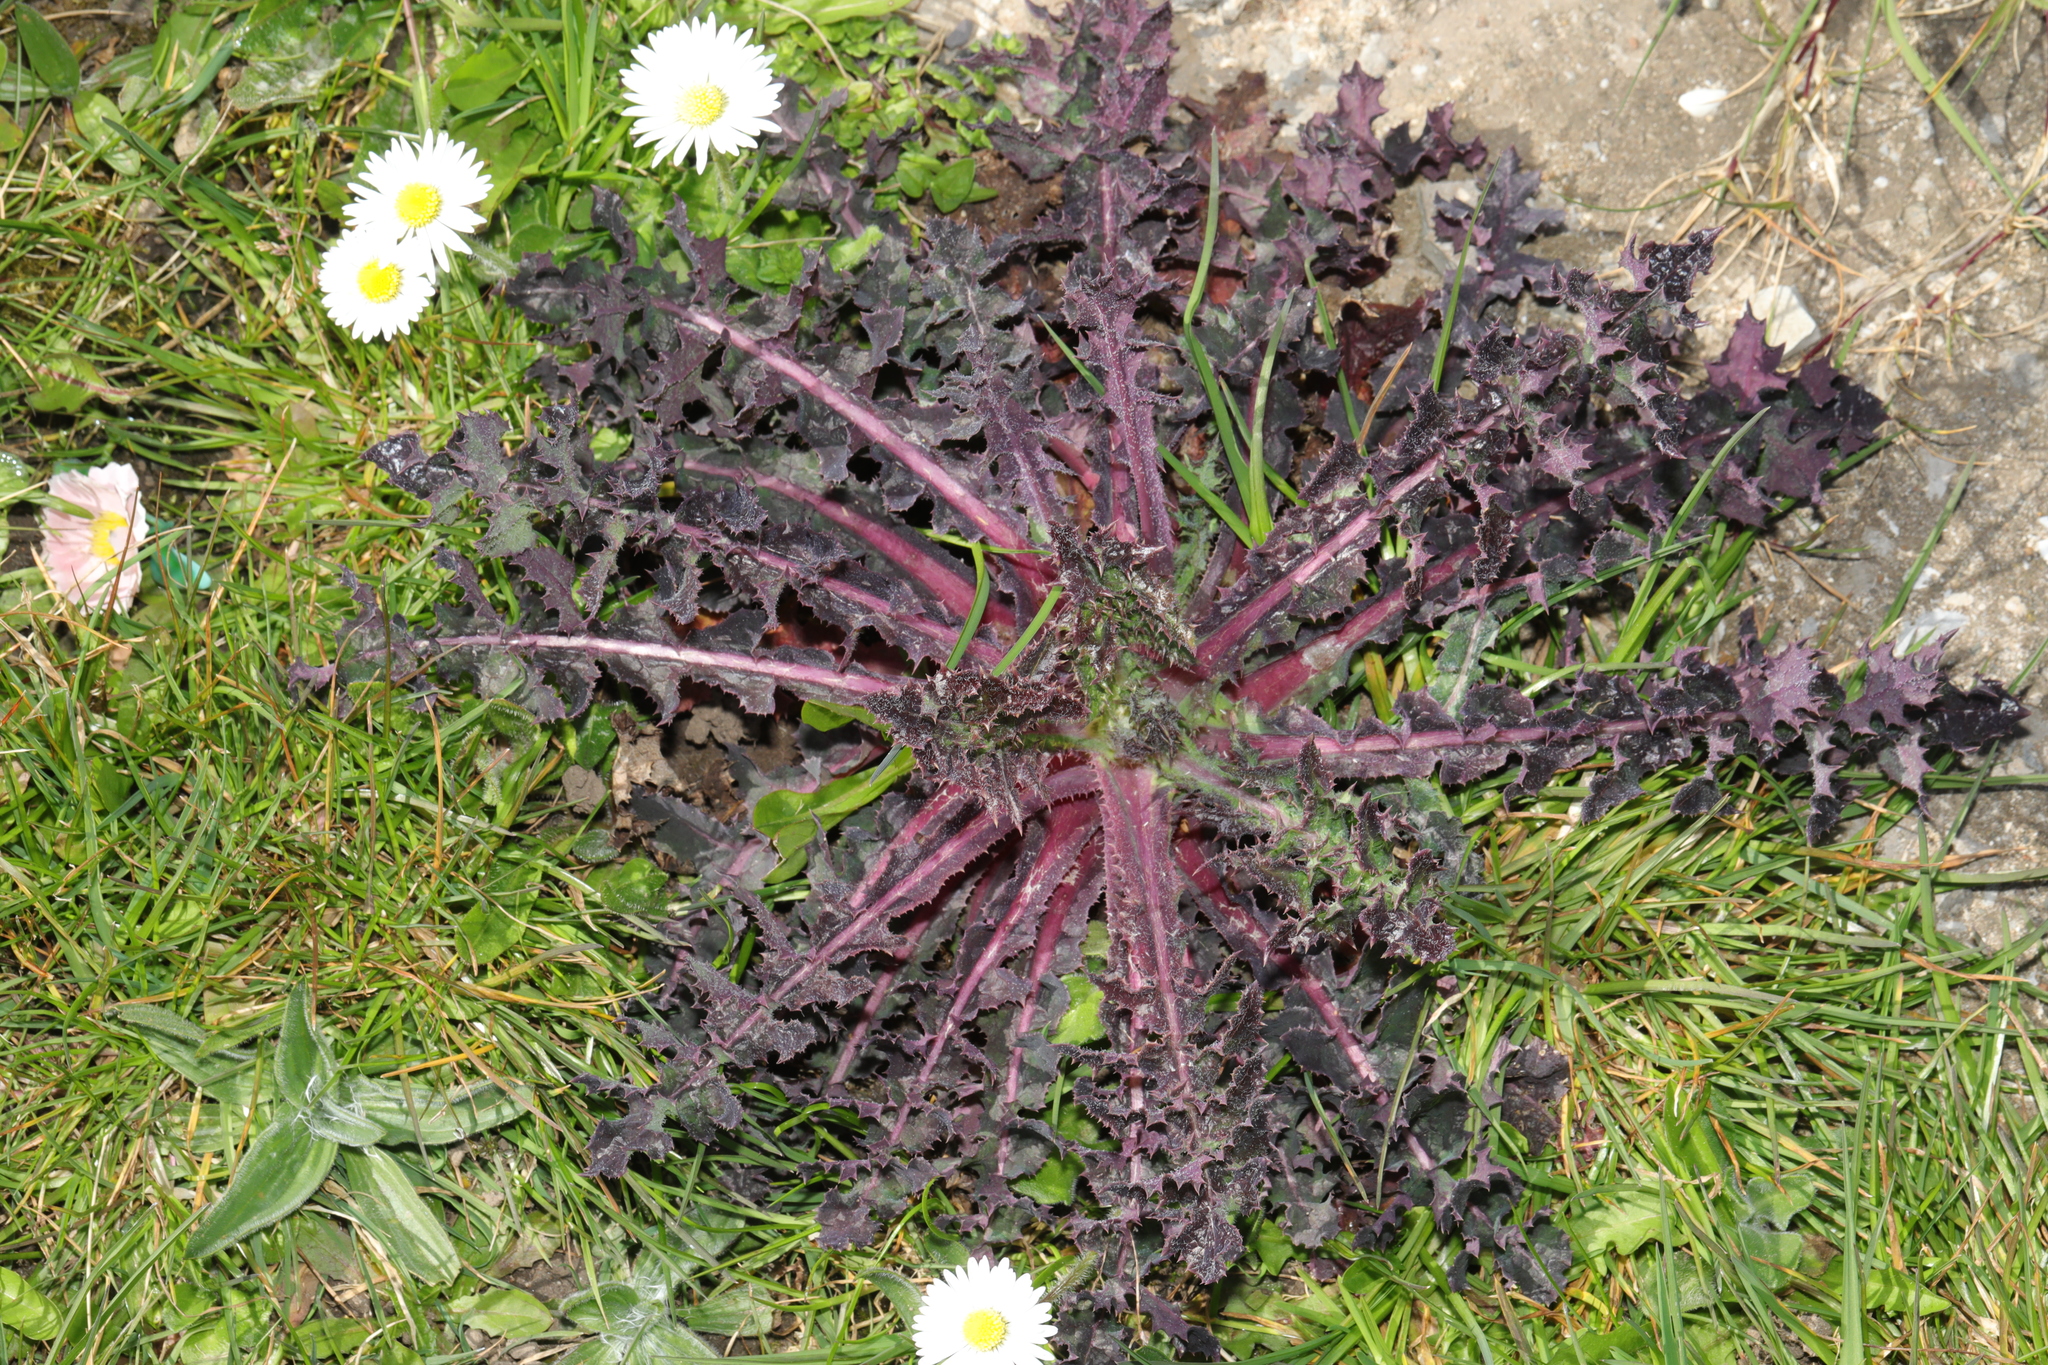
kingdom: Plantae
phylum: Tracheophyta
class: Magnoliopsida
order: Asterales
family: Asteraceae
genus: Sonchus
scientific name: Sonchus asper
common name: Prickly sow-thistle
